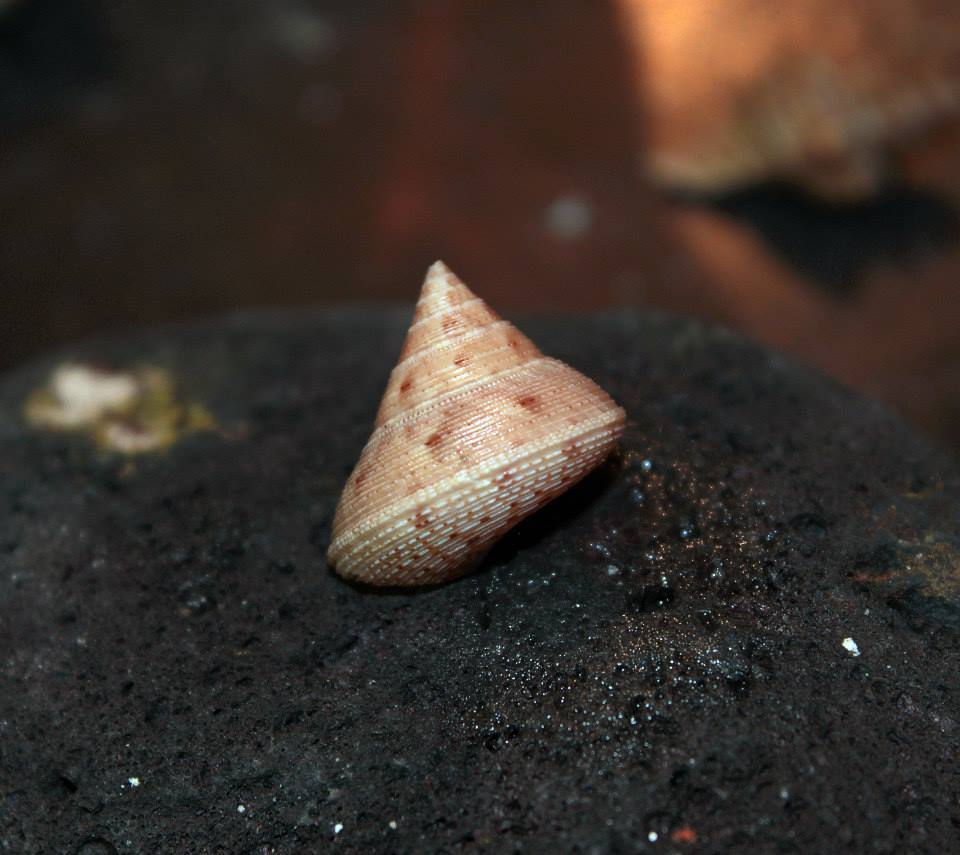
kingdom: Animalia
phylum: Mollusca
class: Gastropoda
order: Trochida
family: Calliostomatidae
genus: Calliostoma
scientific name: Calliostoma granulatum
